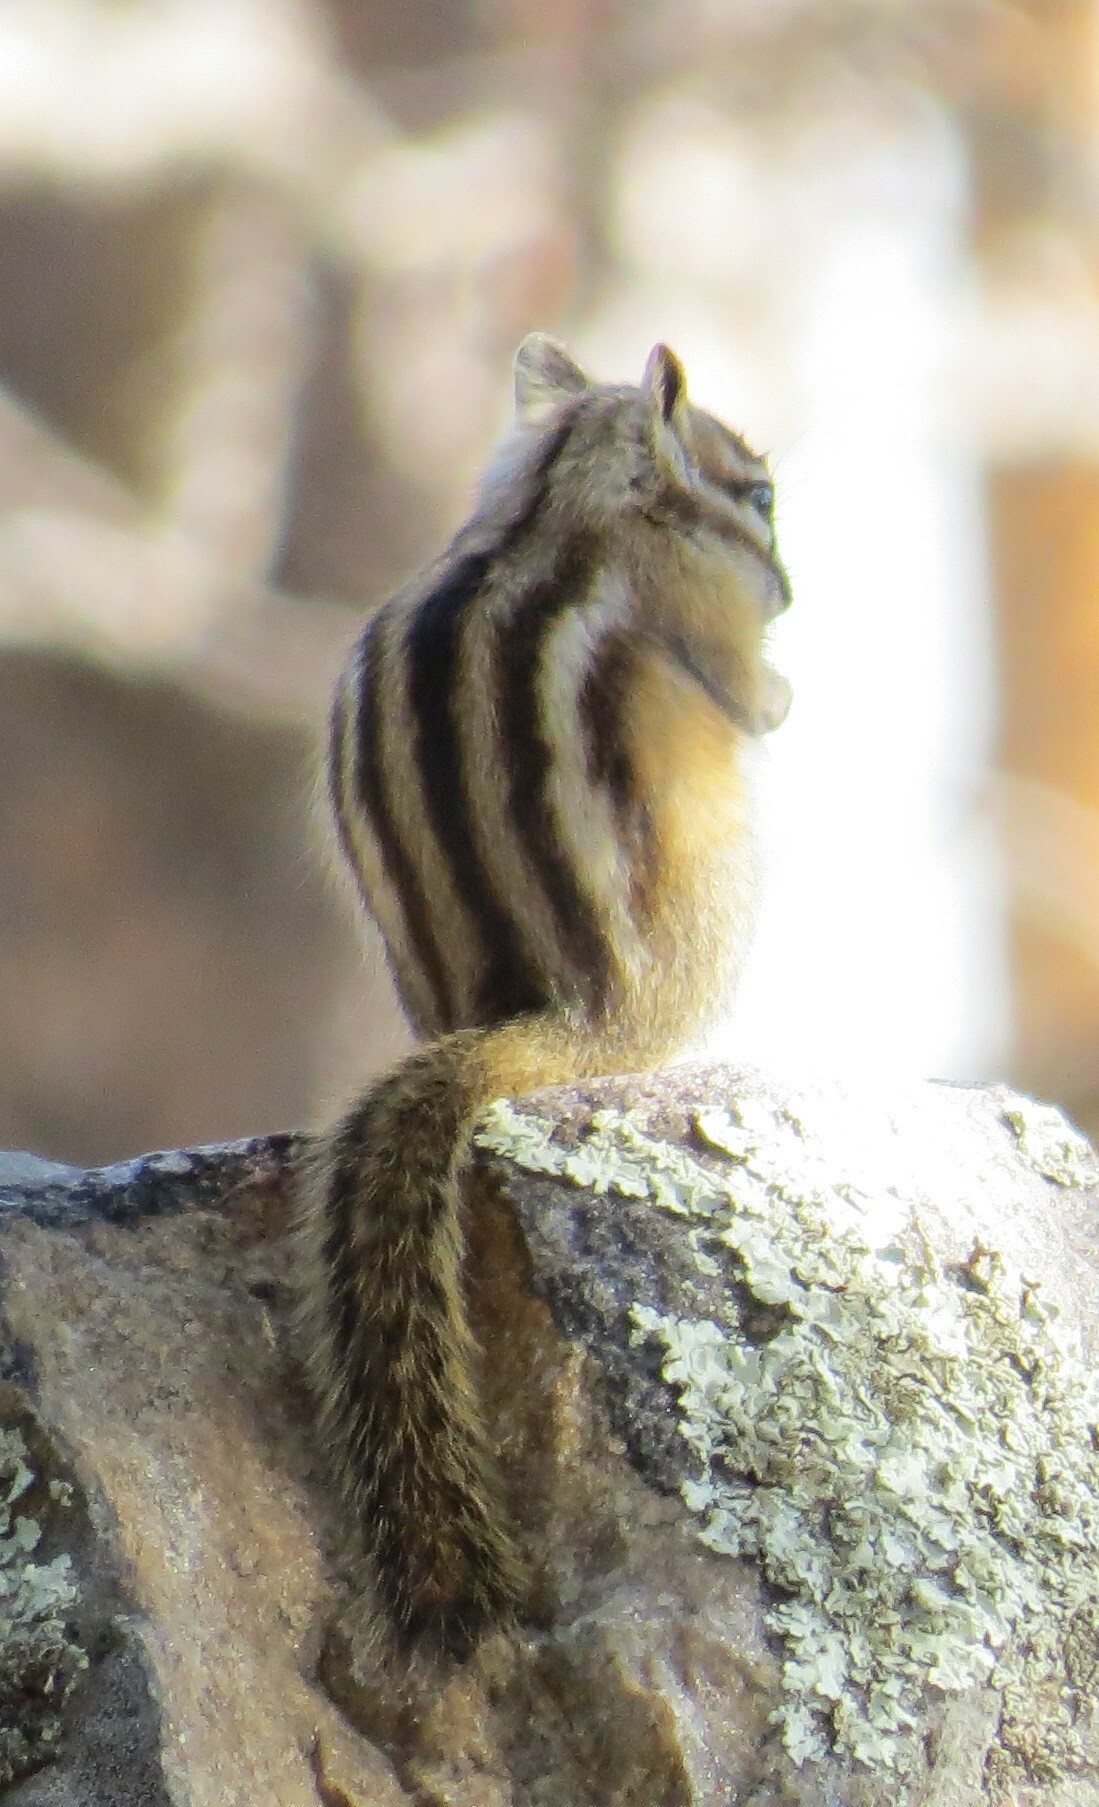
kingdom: Animalia
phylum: Chordata
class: Mammalia
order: Rodentia
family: Sciuridae
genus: Tamias
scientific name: Tamias minimus
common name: Least chipmunk
